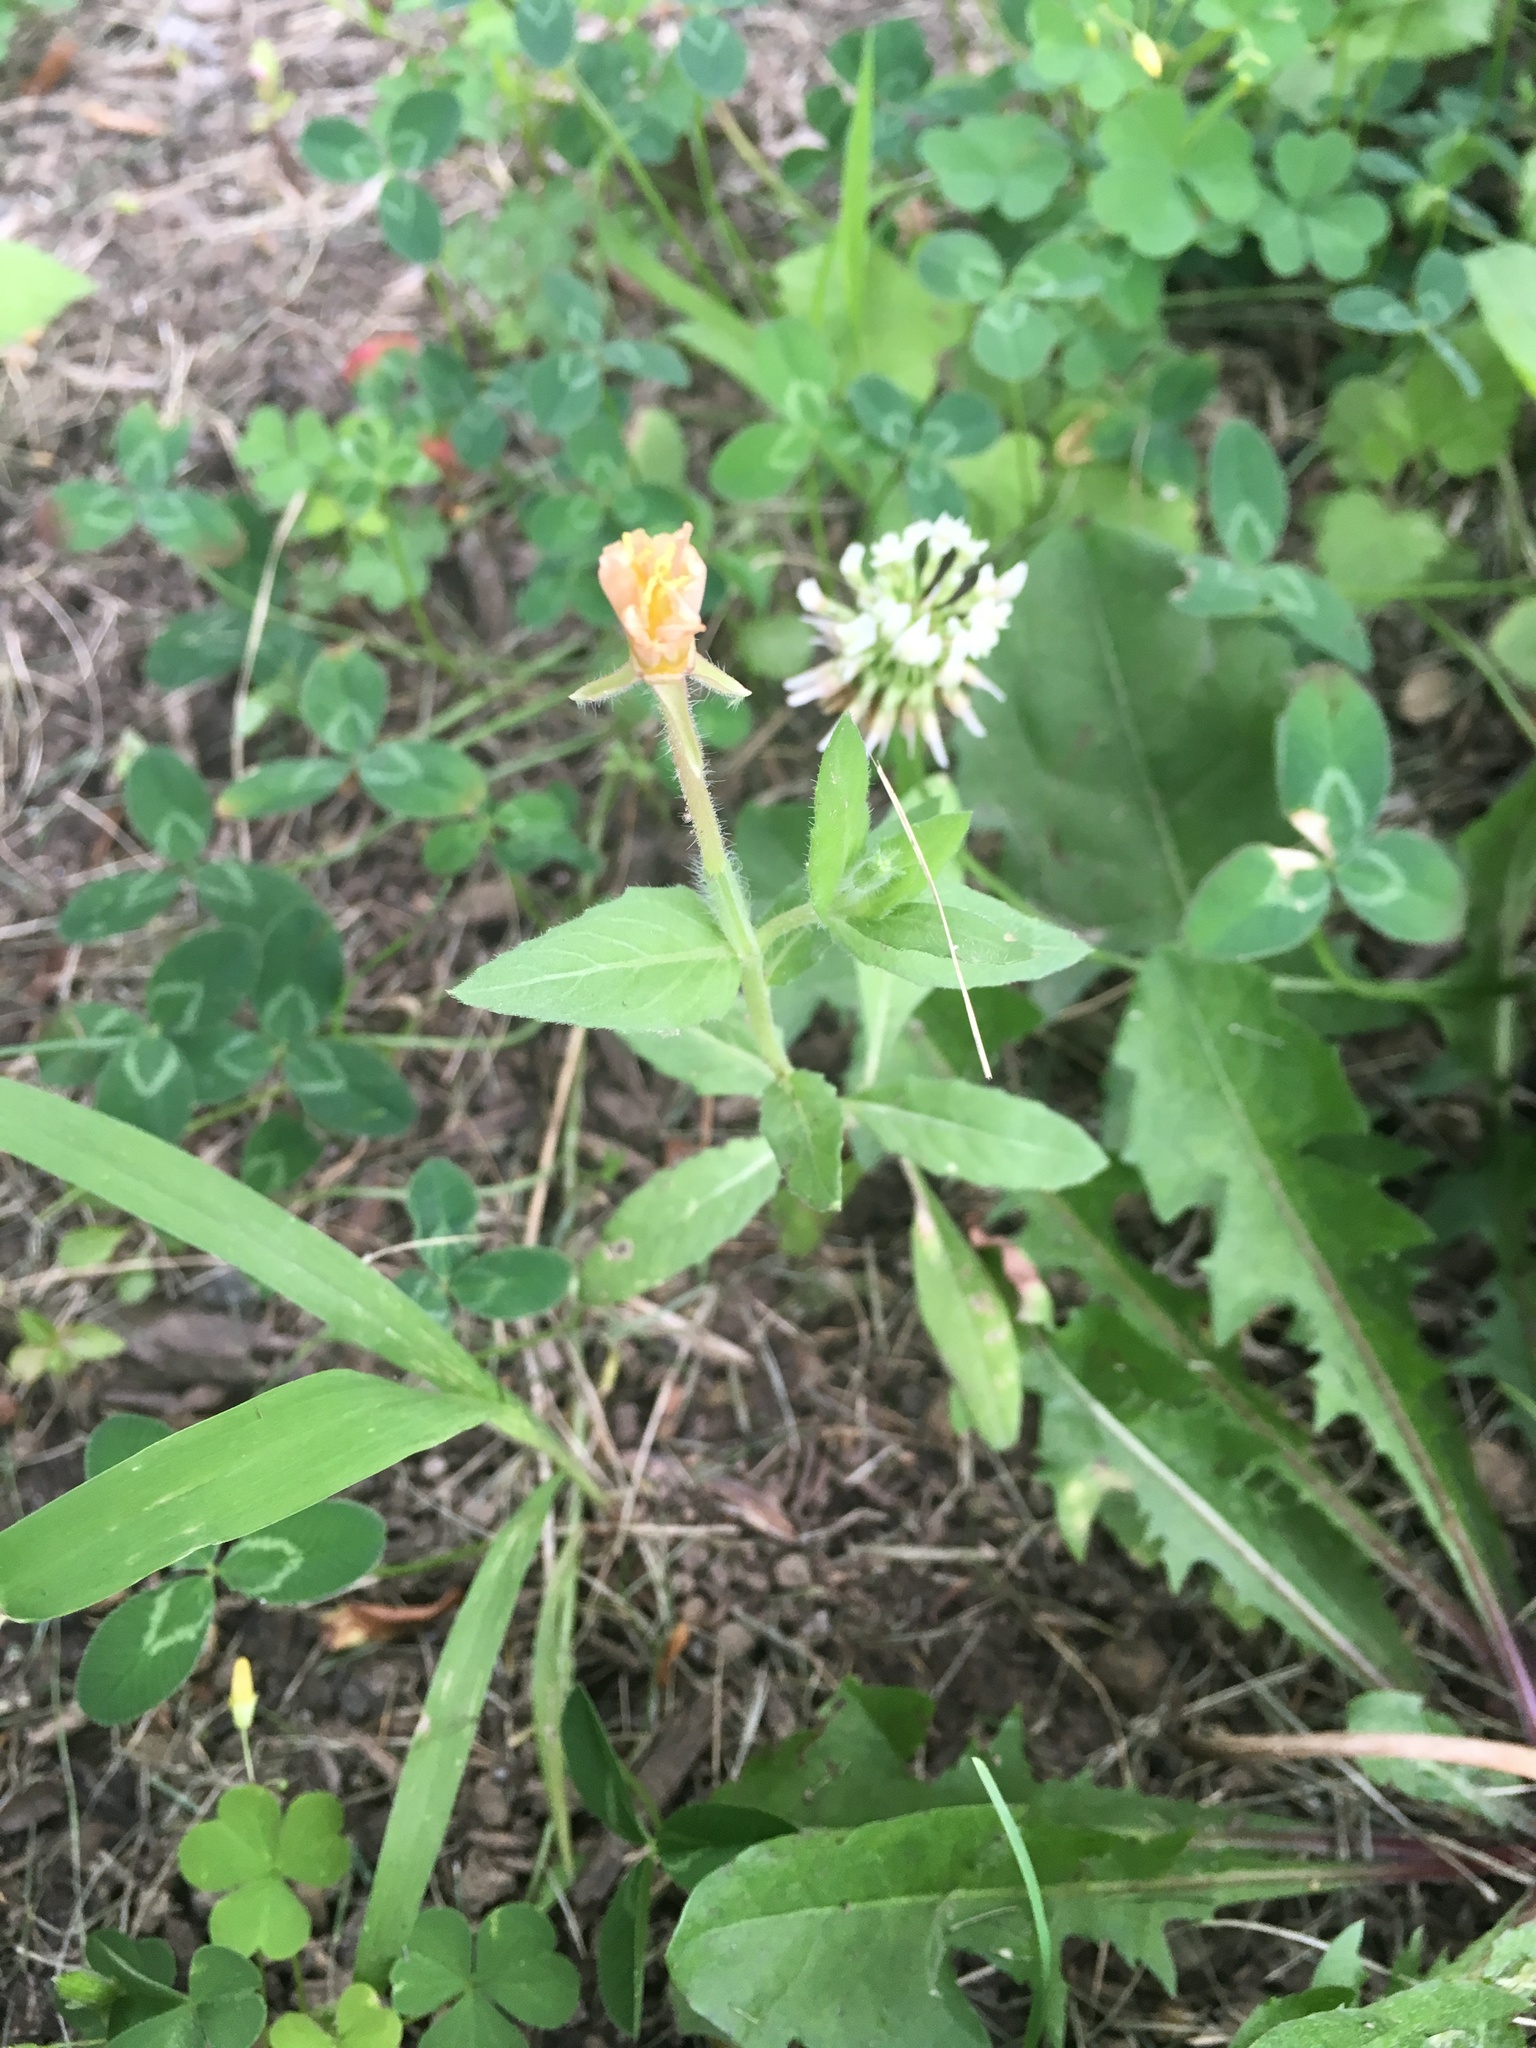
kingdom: Plantae
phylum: Tracheophyta
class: Magnoliopsida
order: Myrtales
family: Onagraceae
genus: Oenothera
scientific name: Oenothera laciniata
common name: Cut-leaved evening-primrose
